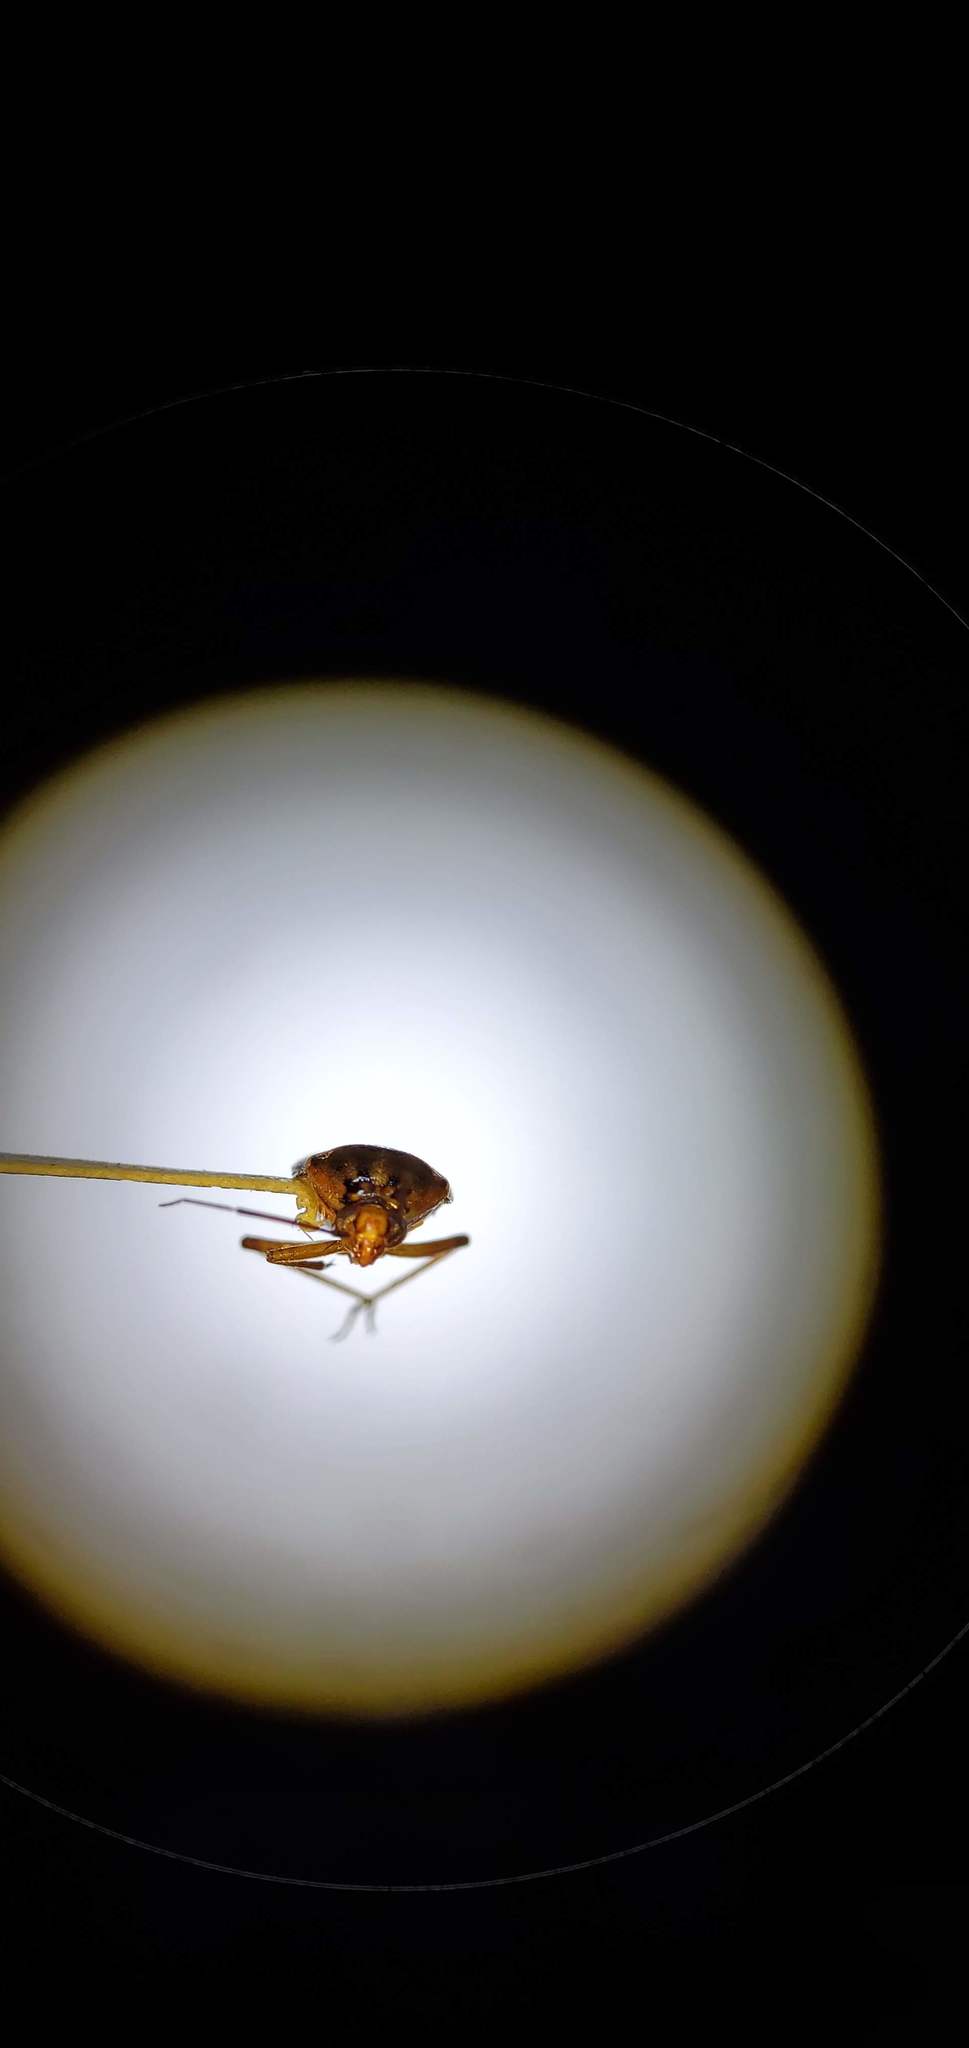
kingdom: Animalia
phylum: Arthropoda
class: Insecta
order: Hemiptera
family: Miridae
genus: Lygus
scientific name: Lygus lineolaris
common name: North american tarnished plant bug
